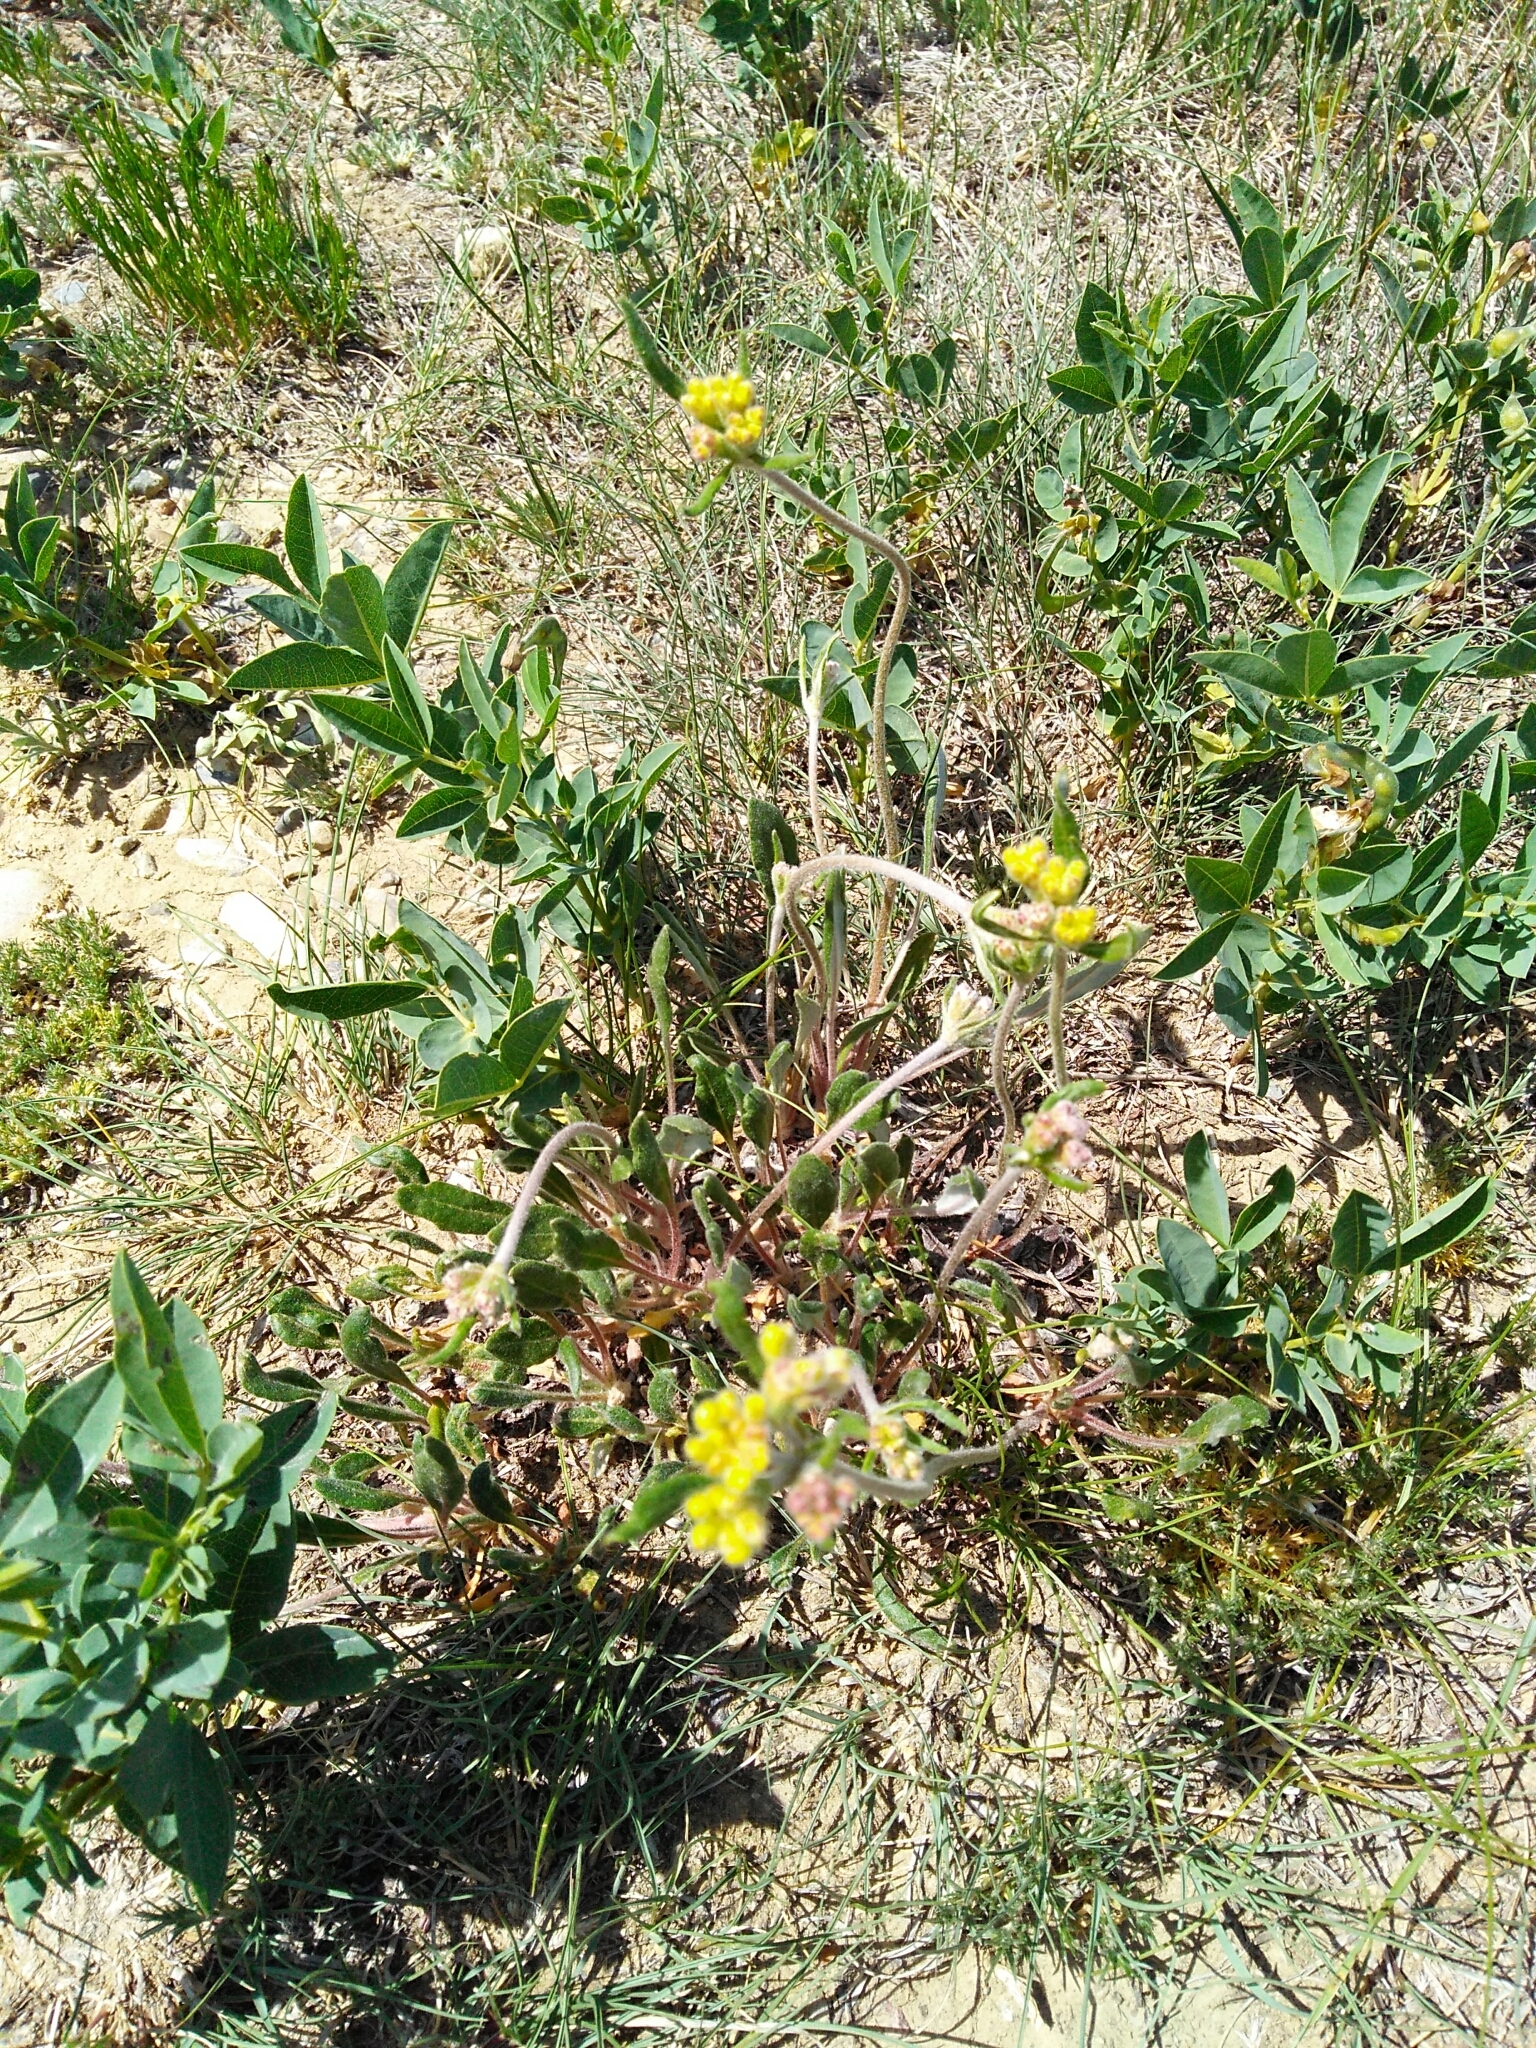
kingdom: Plantae
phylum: Tracheophyta
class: Magnoliopsida
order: Caryophyllales
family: Polygonaceae
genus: Eriogonum
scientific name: Eriogonum flavum
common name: Alpine golden wild buckwheat
